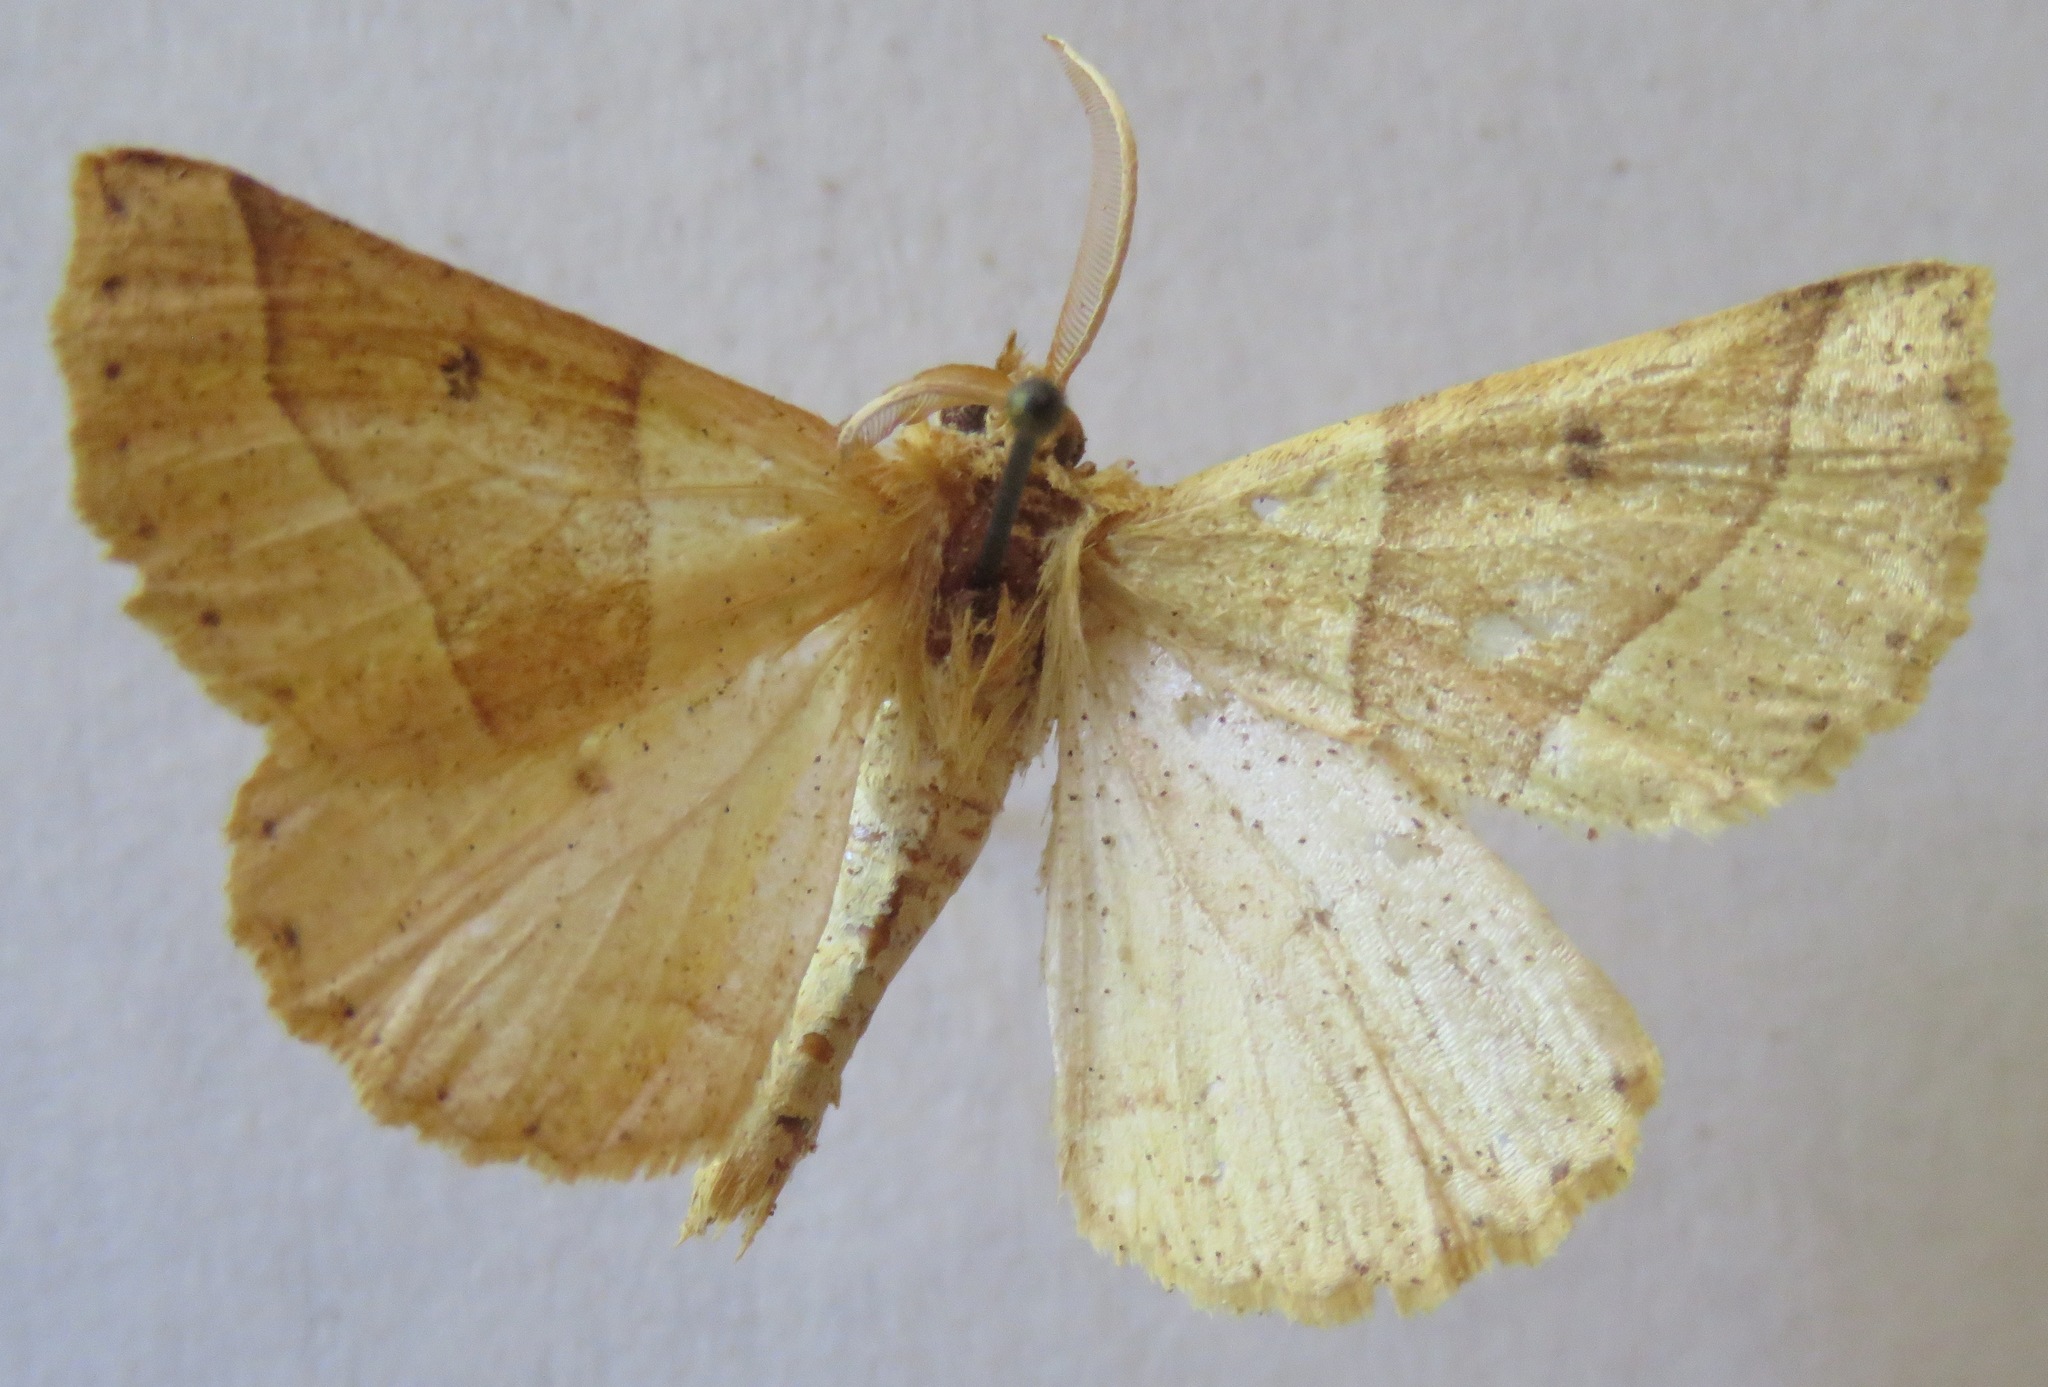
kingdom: Animalia
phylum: Arthropoda
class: Insecta
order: Lepidoptera
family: Geometridae
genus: Crocallis
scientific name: Crocallis elinguaria
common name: Scalloped oak
